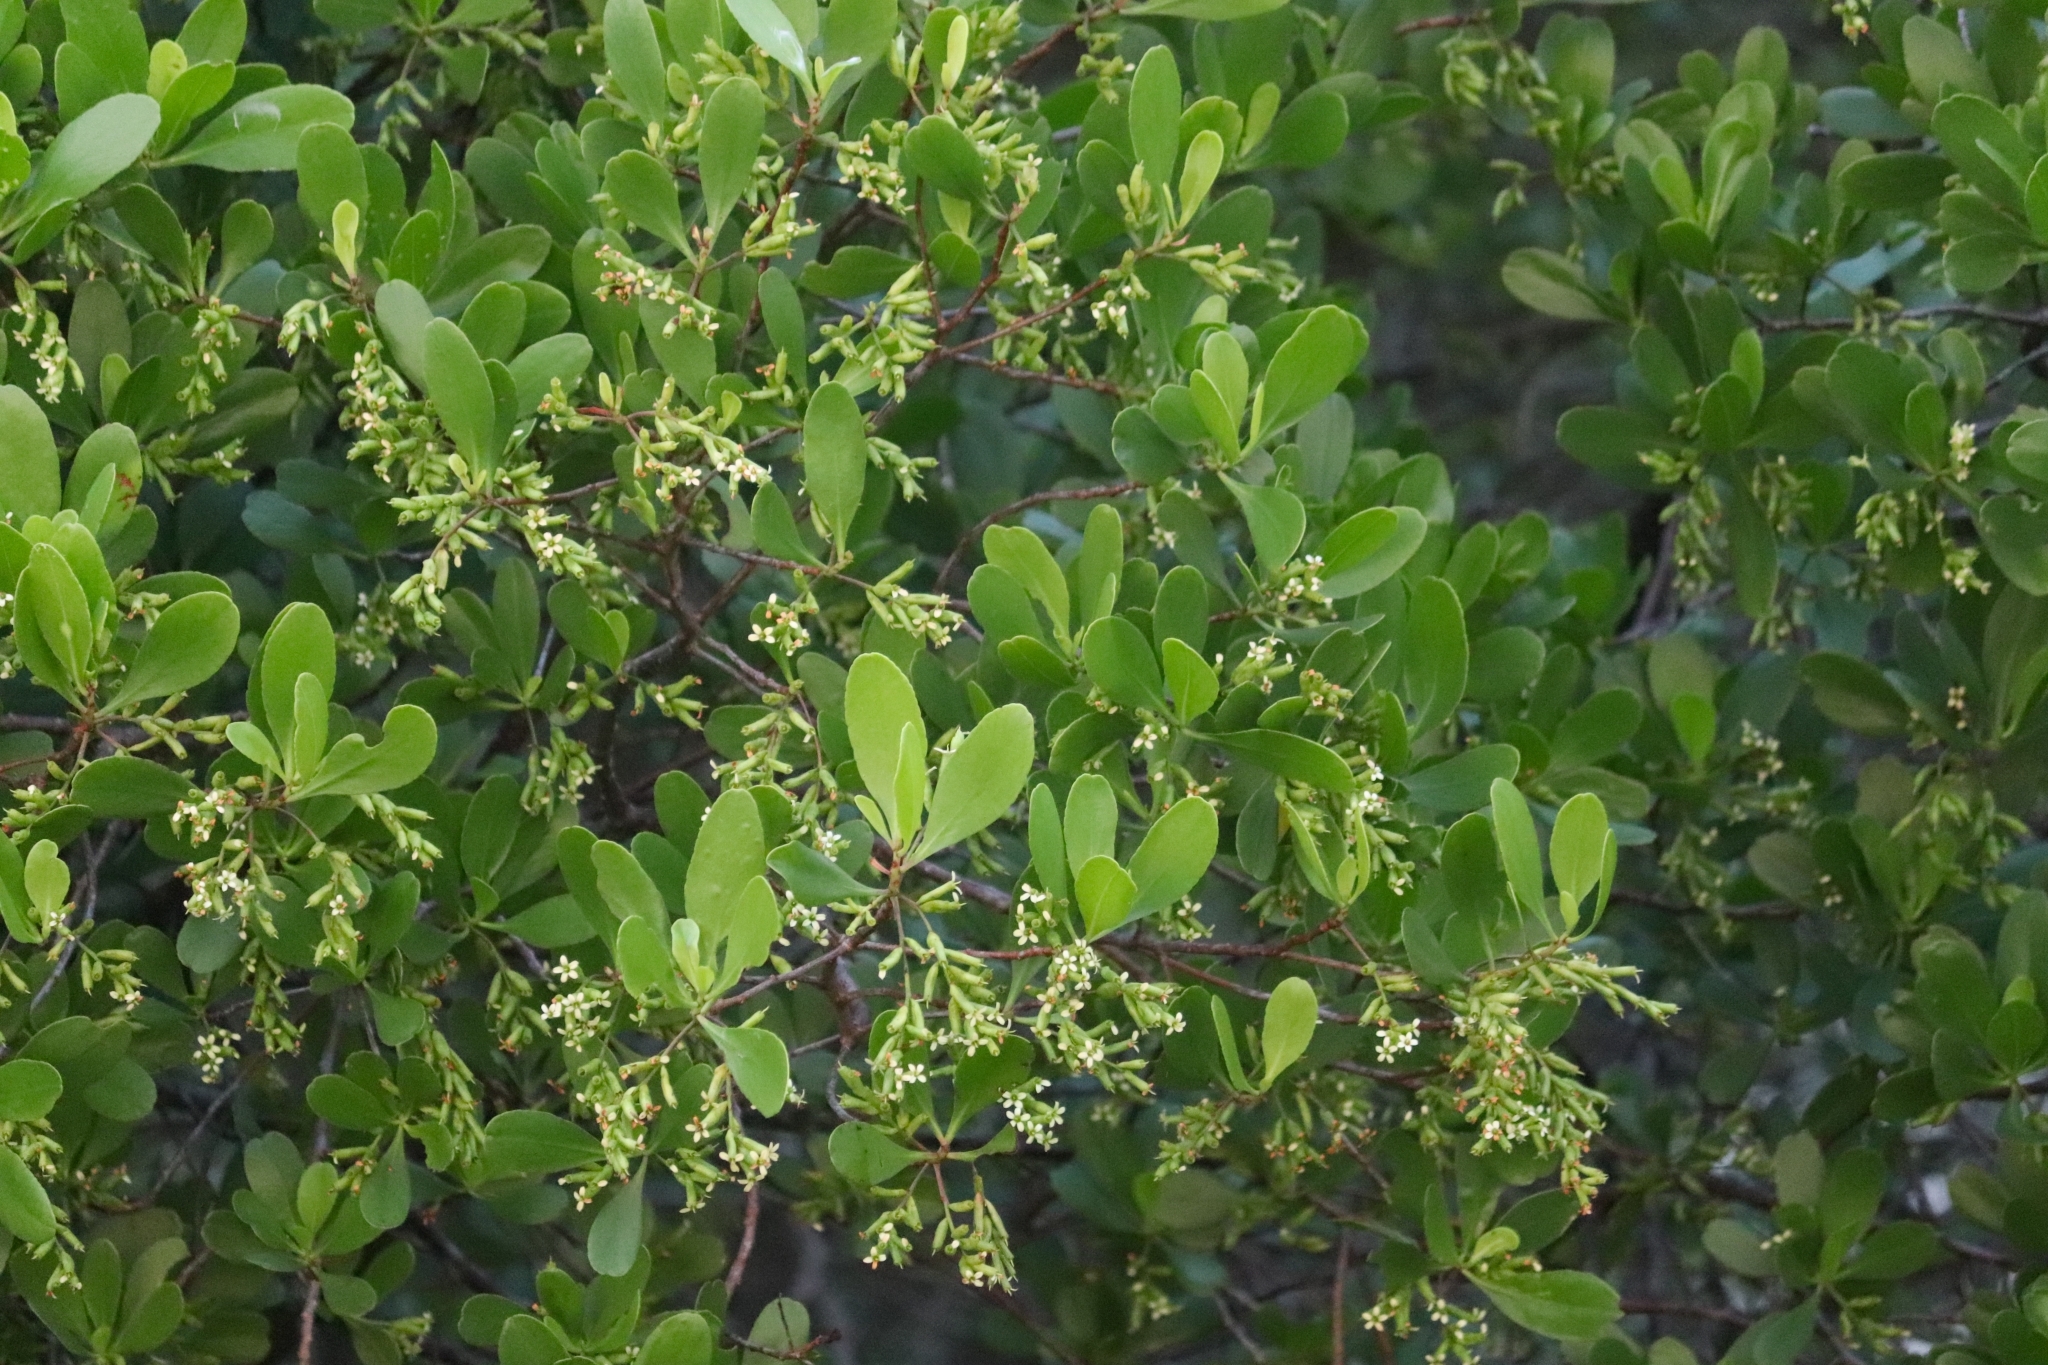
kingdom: Plantae
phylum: Tracheophyta
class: Magnoliopsida
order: Myrtales
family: Combretaceae
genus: Lumnitzera
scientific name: Lumnitzera racemosa
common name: White-flowered black mangrove
